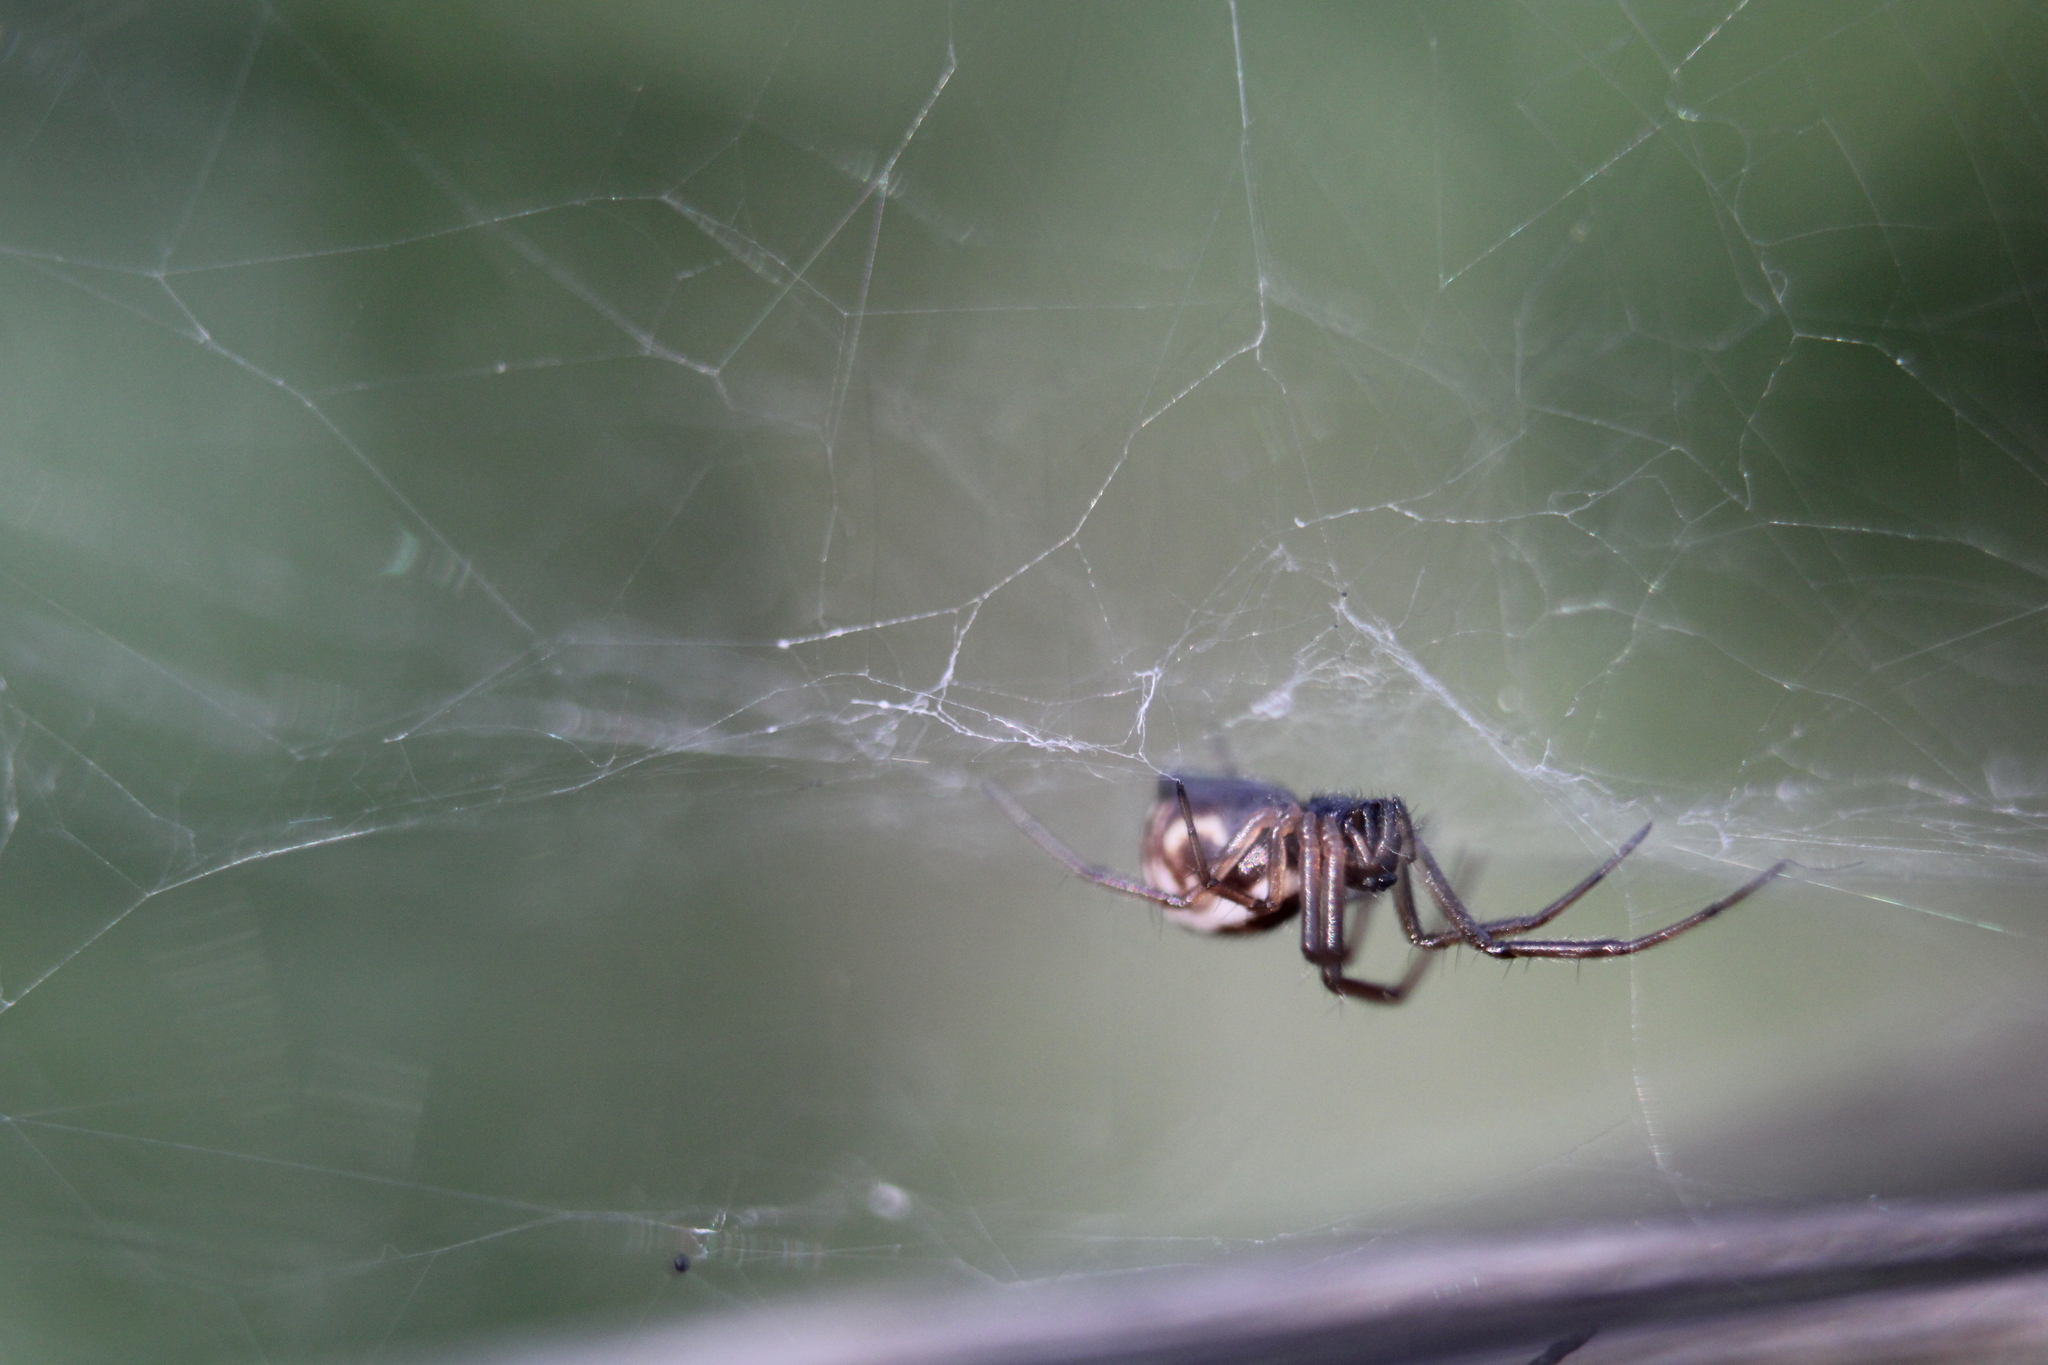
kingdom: Animalia
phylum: Arthropoda
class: Arachnida
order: Araneae
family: Linyphiidae
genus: Frontinella
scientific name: Frontinella pyramitela
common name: Bowl-and-doily spider
